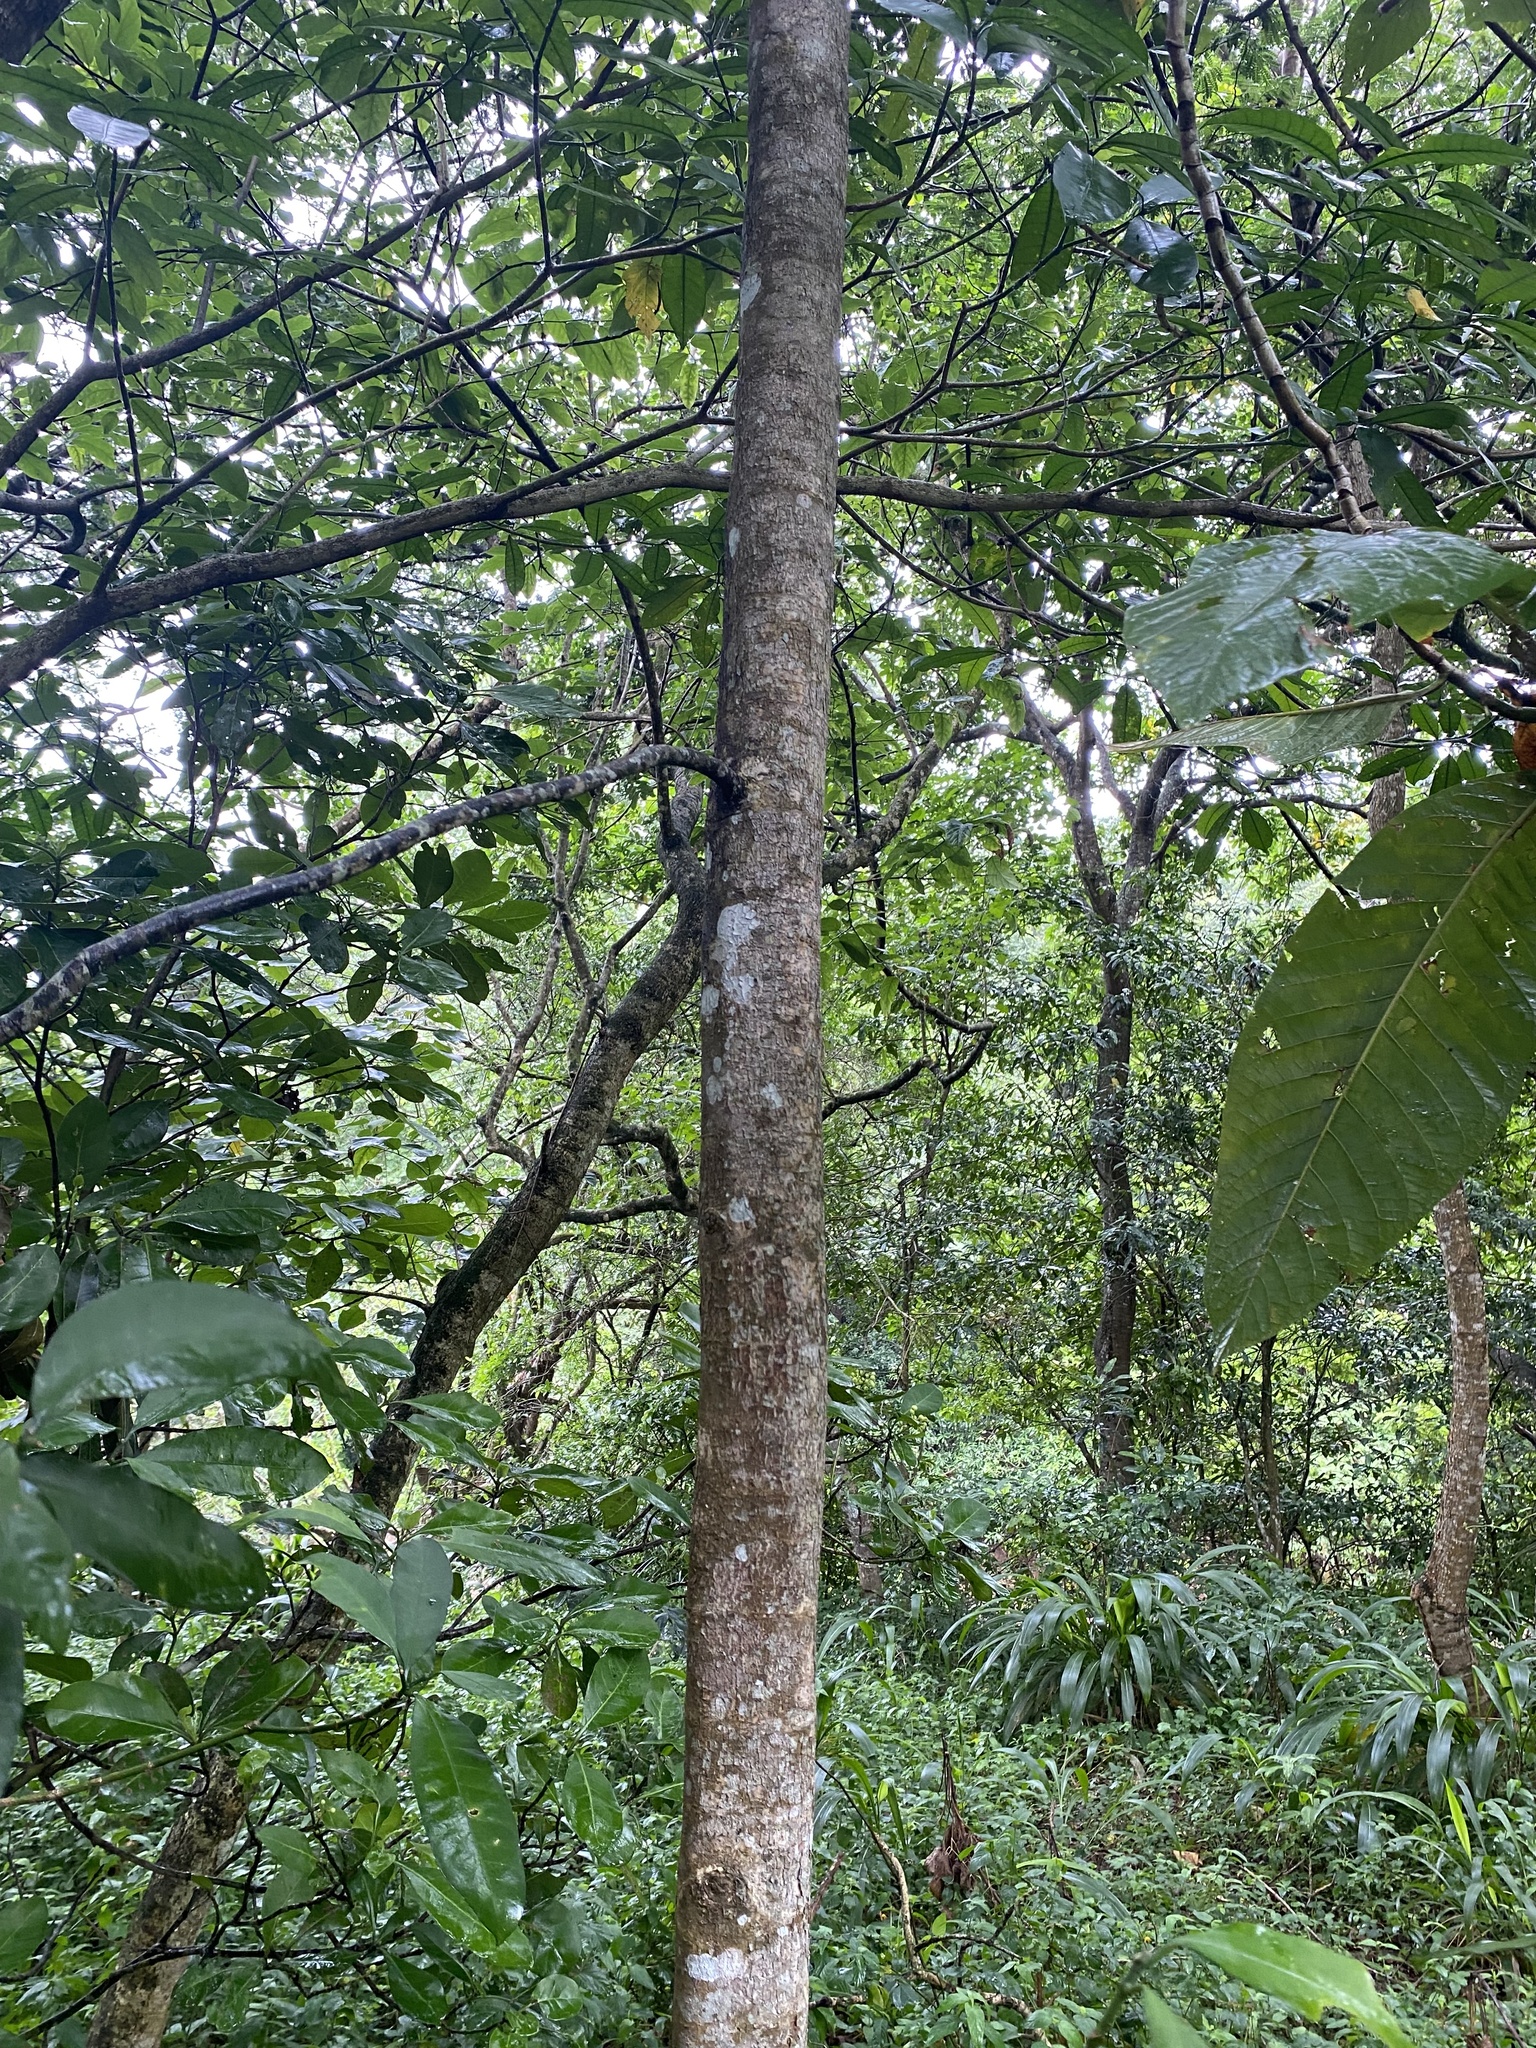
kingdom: Plantae
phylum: Tracheophyta
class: Magnoliopsida
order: Caryophyllales
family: Polygonaceae
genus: Triplaris
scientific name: Triplaris americana
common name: Ant-tree
